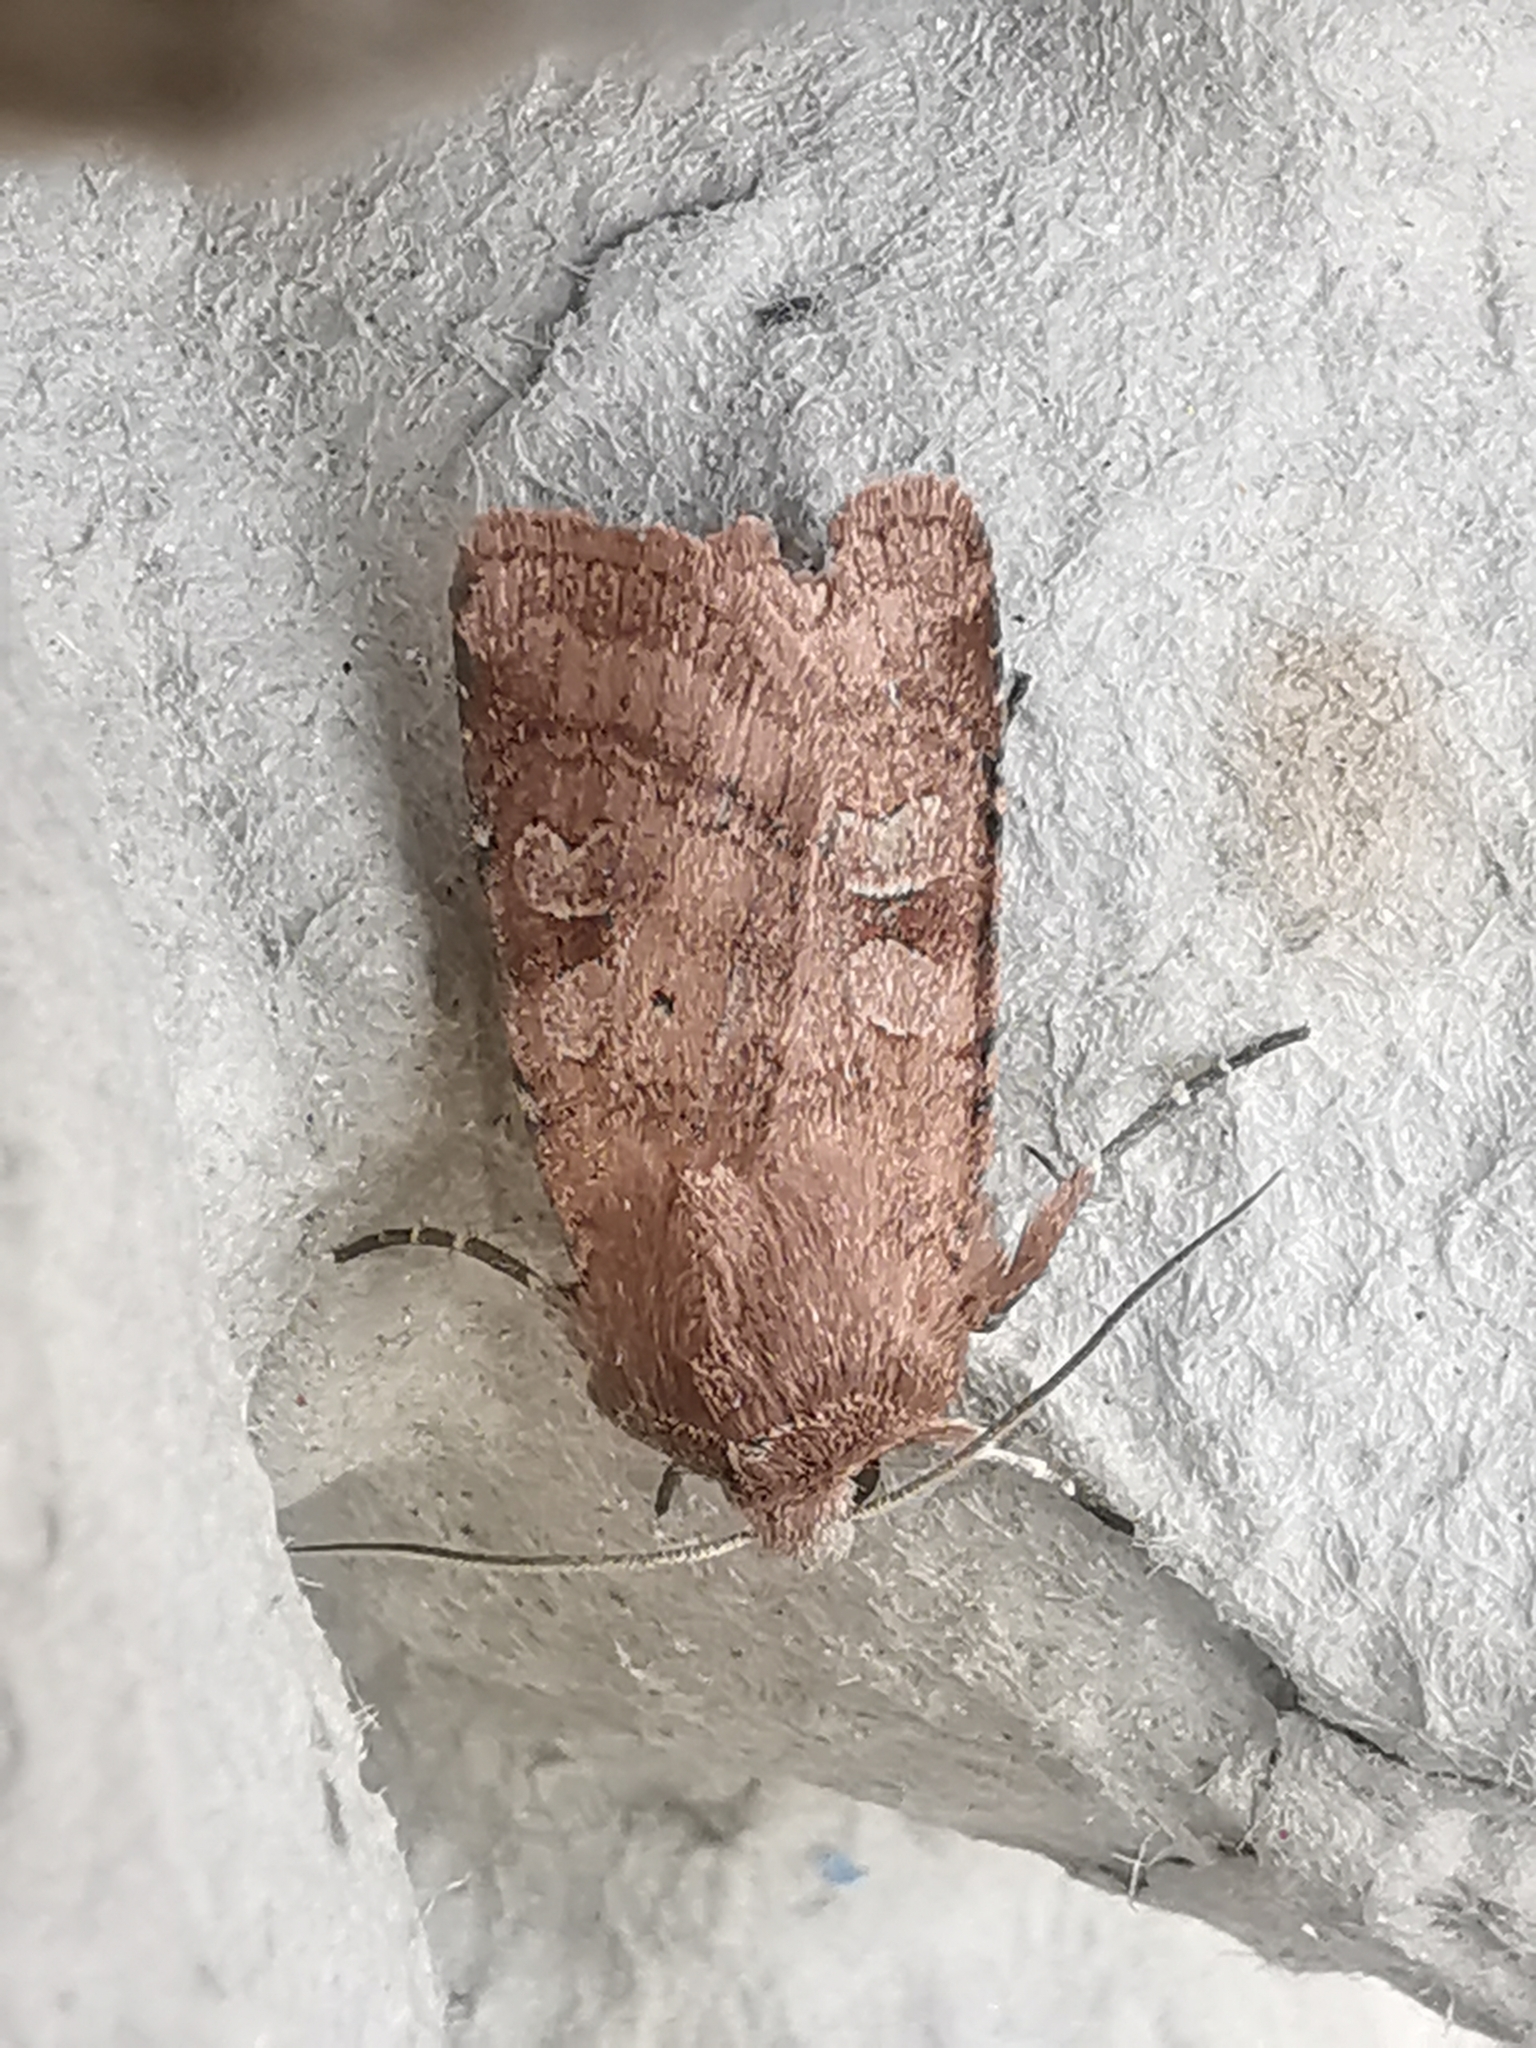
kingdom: Animalia
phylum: Arthropoda
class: Insecta
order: Lepidoptera
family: Noctuidae
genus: Diarsia
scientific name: Diarsia rubi
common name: Small square-spot
